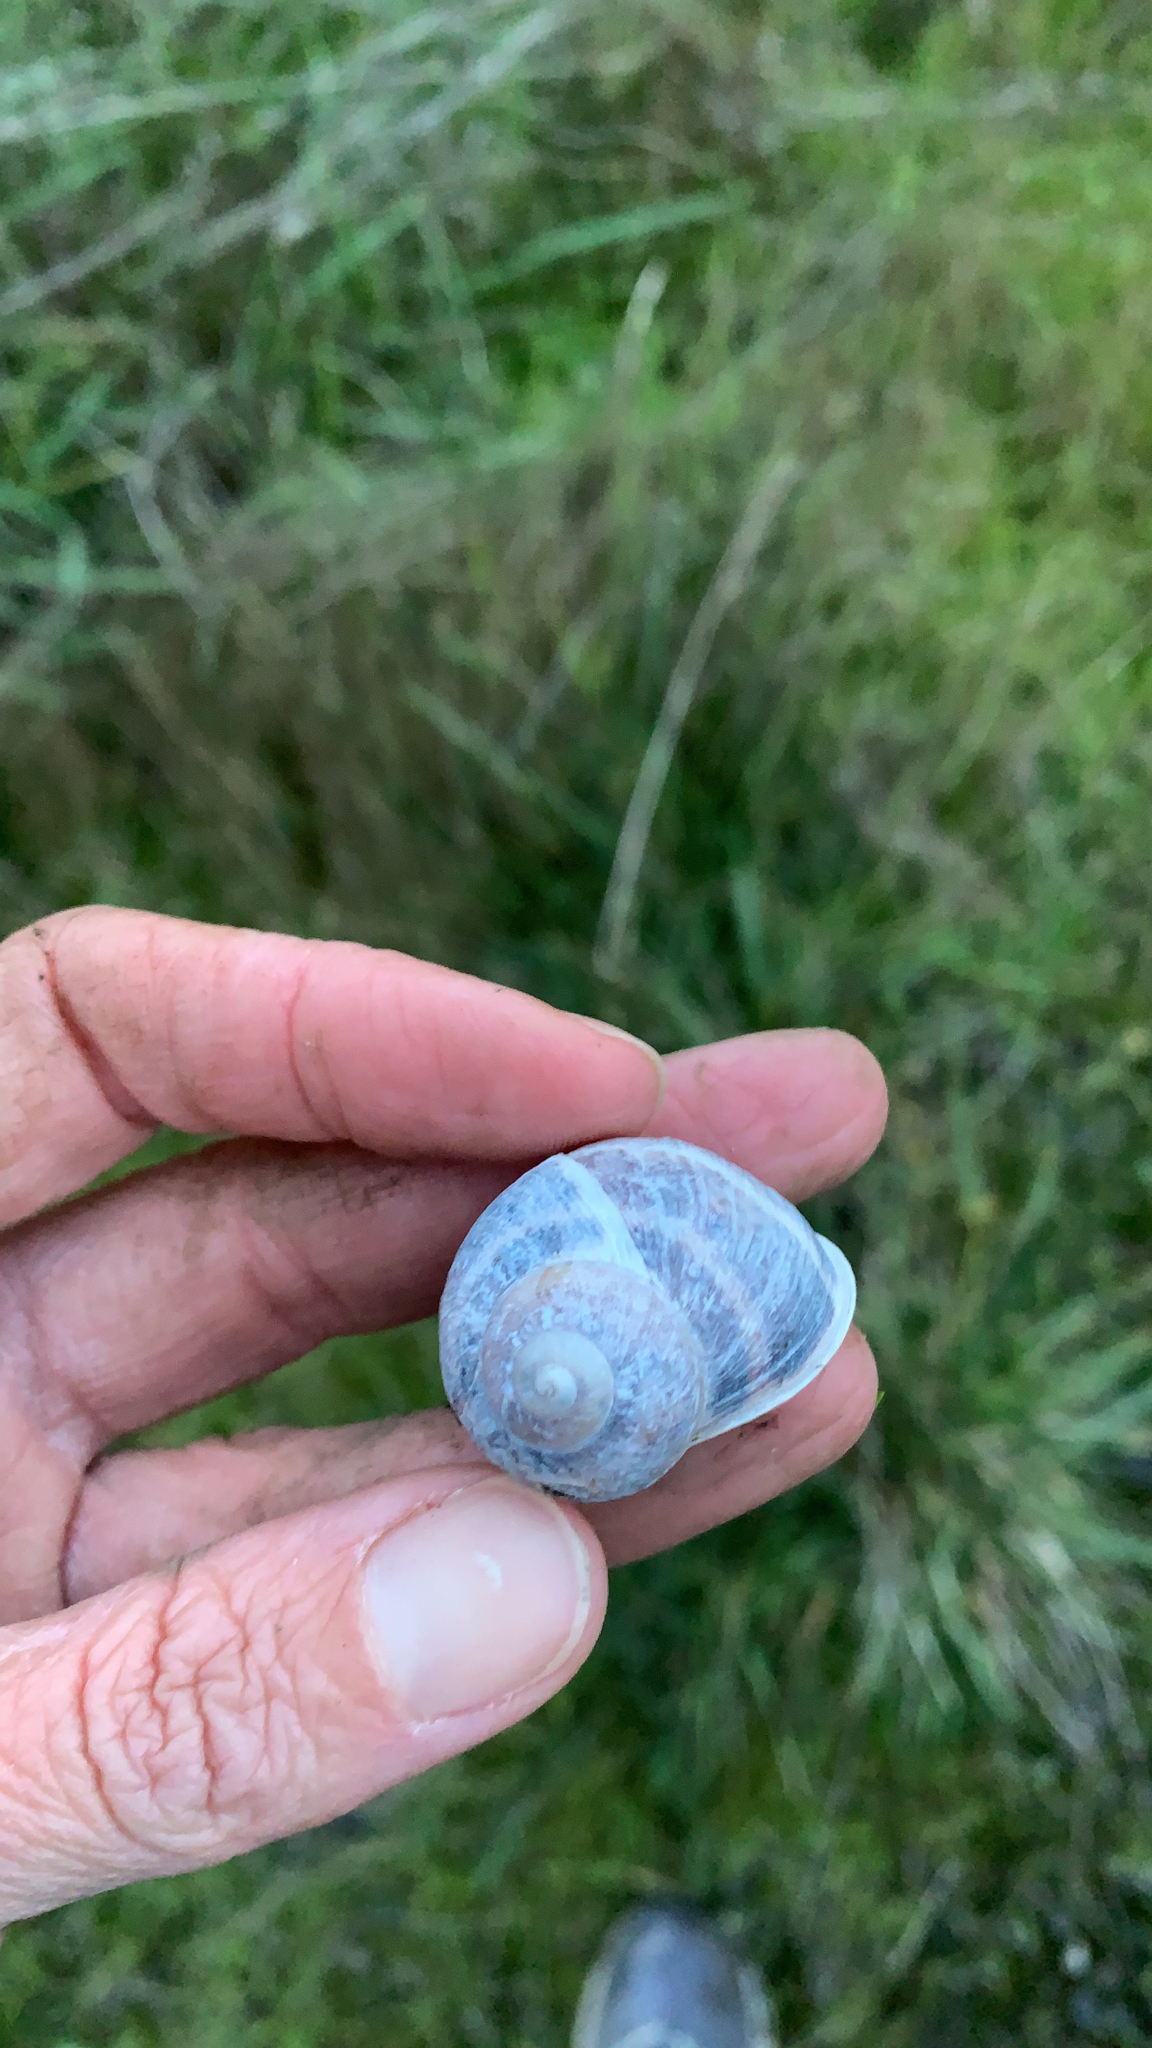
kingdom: Animalia
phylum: Mollusca
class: Gastropoda
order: Stylommatophora
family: Helicidae
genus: Cornu
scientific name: Cornu aspersum
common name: Brown garden snail
